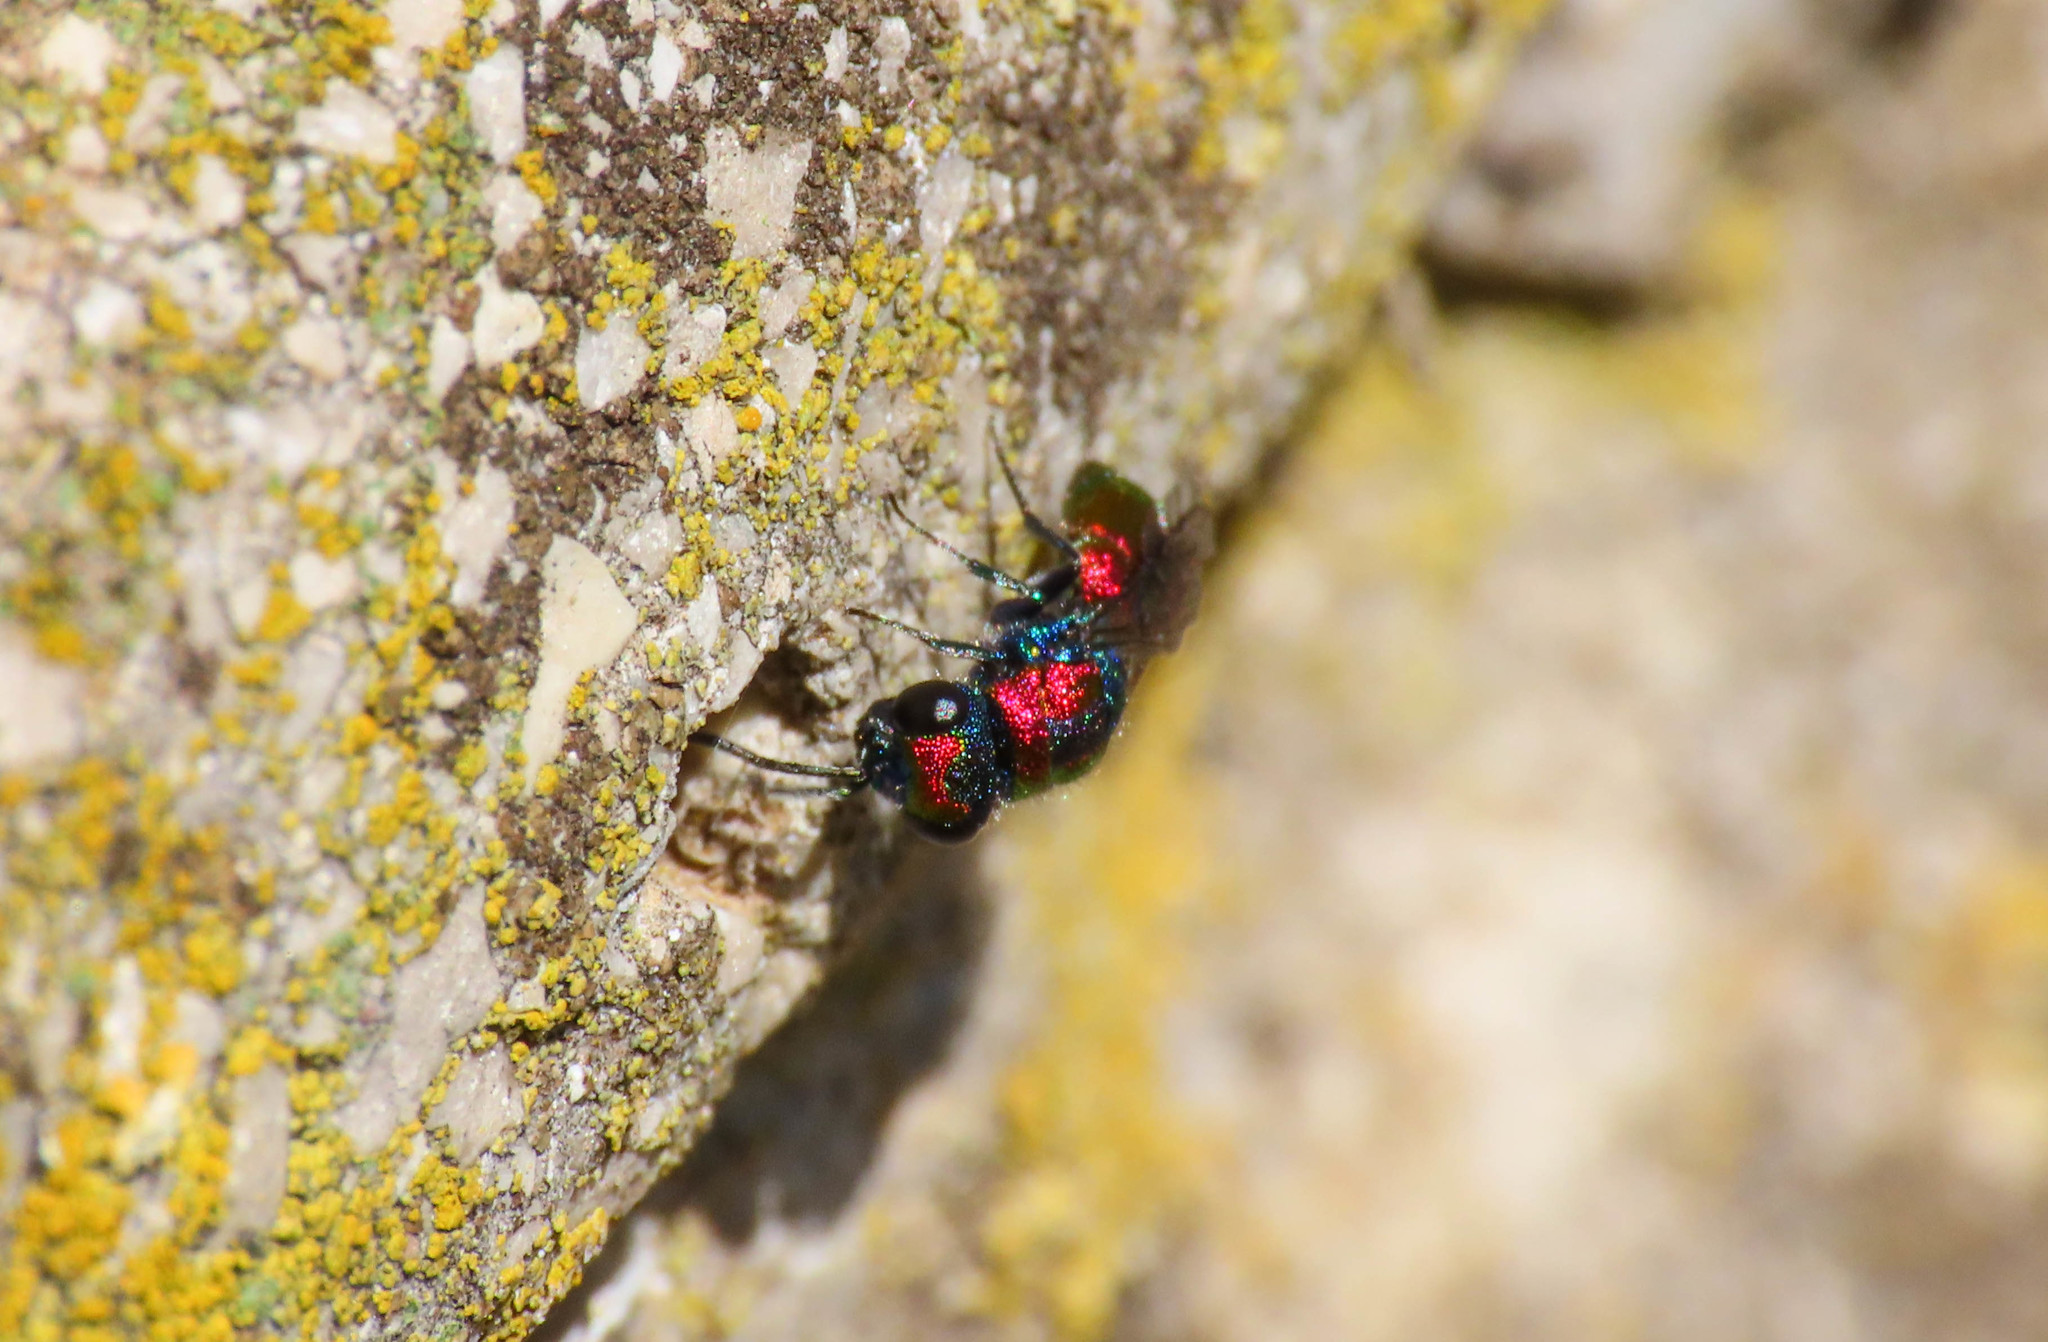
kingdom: Animalia
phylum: Arthropoda
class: Insecta
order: Hymenoptera
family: Chrysididae
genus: Chrysura
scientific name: Chrysura candens
